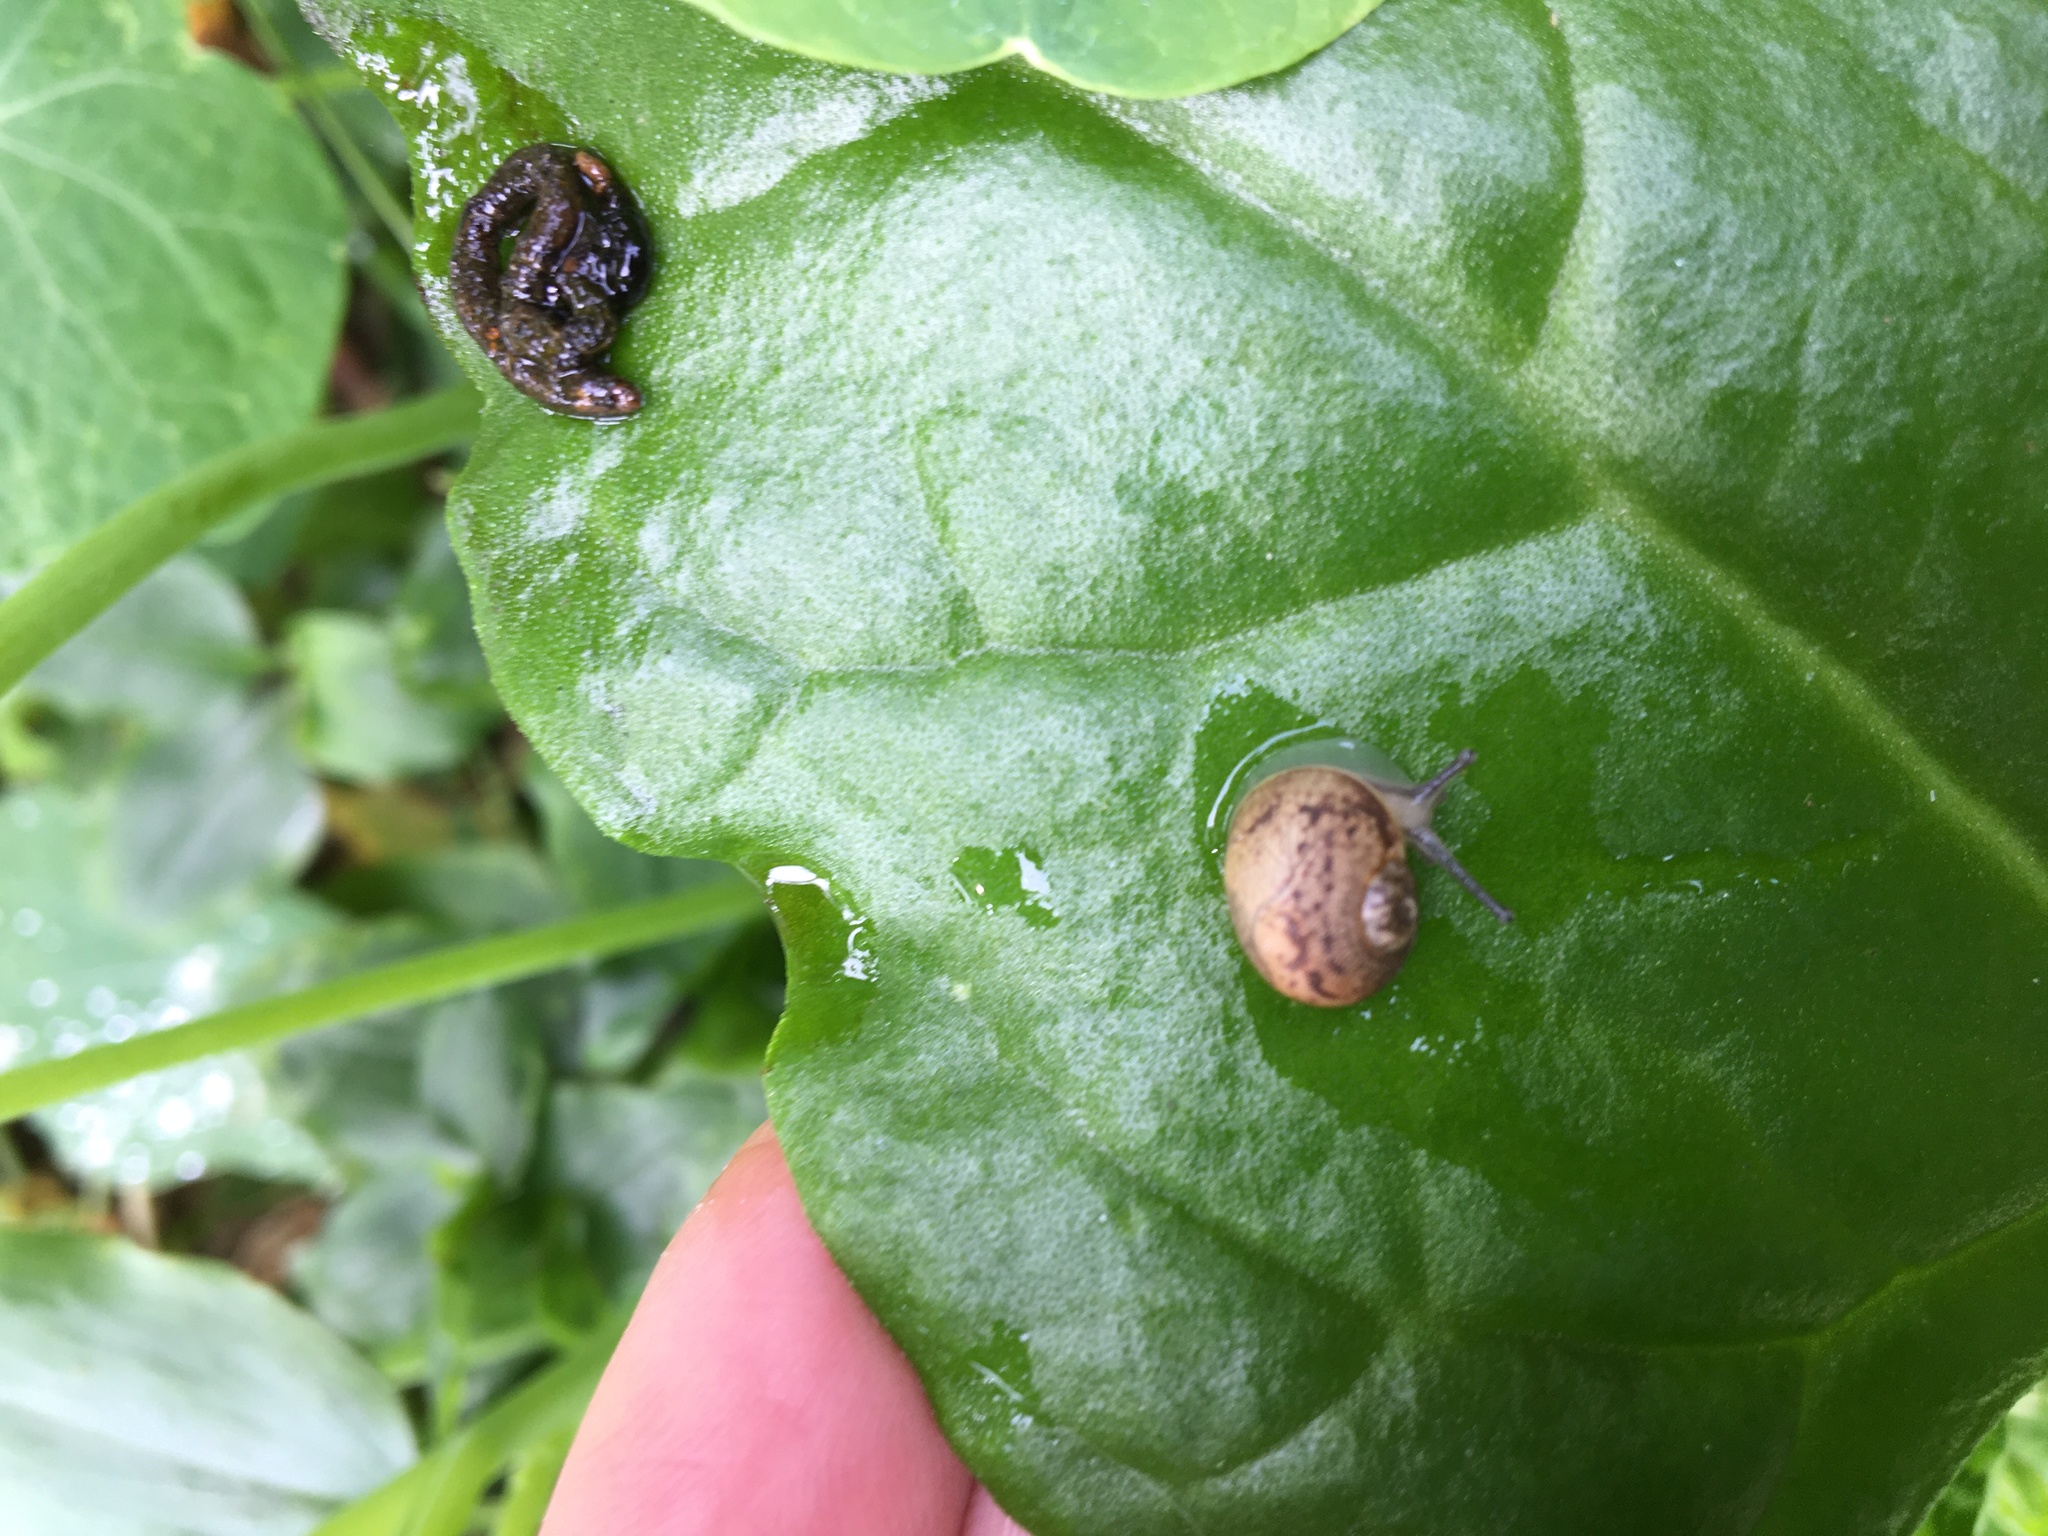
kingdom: Animalia
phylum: Mollusca
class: Gastropoda
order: Stylommatophora
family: Helicidae
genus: Cornu
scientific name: Cornu aspersum
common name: Brown garden snail
